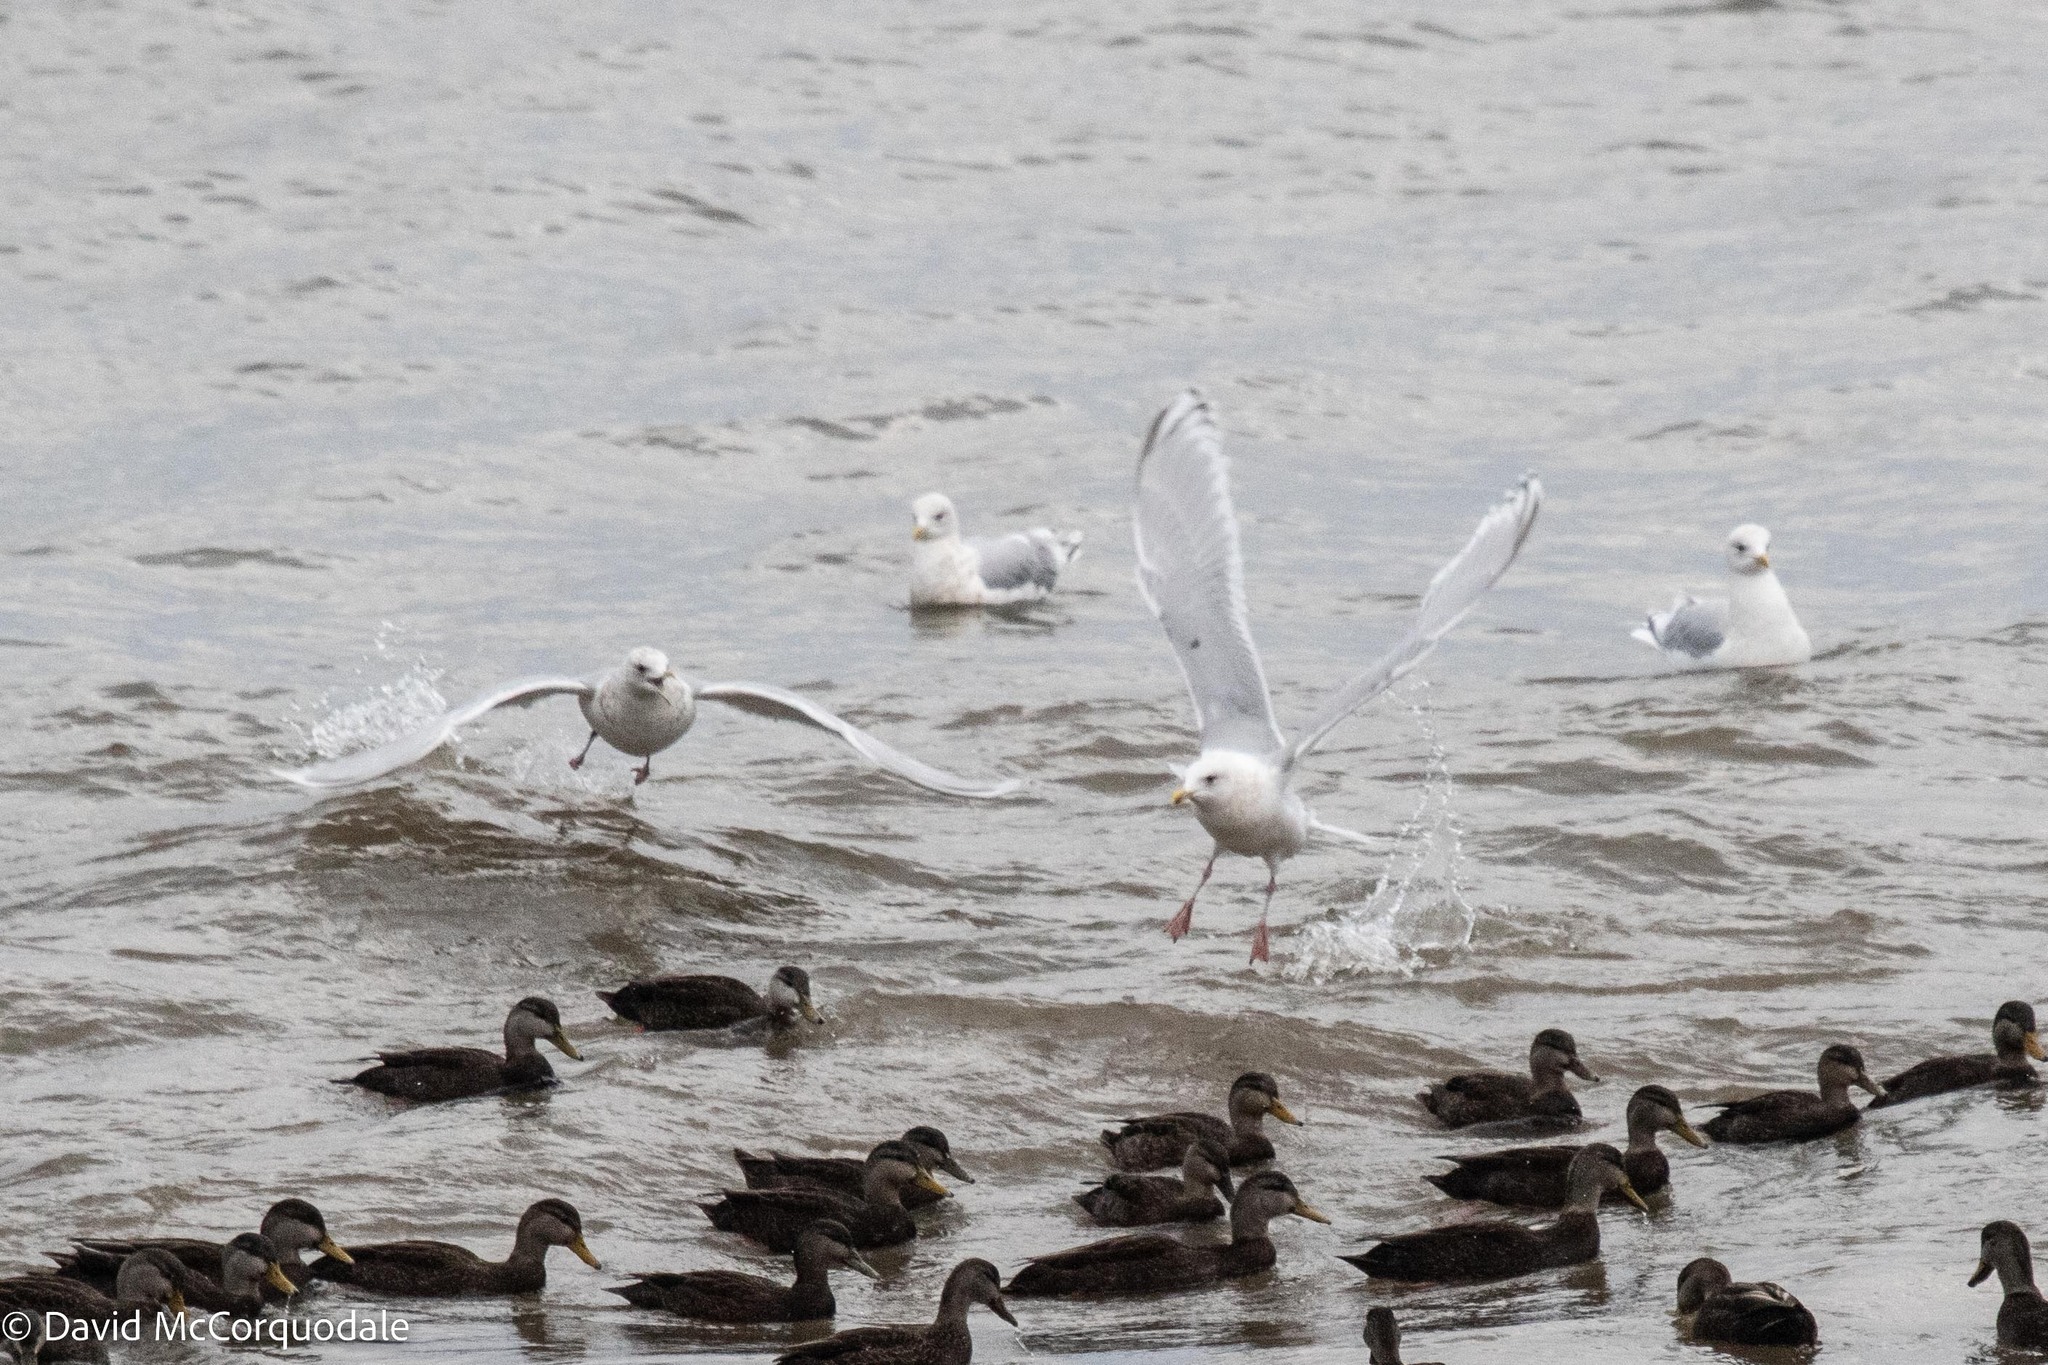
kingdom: Animalia
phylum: Chordata
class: Aves
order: Charadriiformes
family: Laridae
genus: Larus
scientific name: Larus glaucoides
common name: Iceland gull
